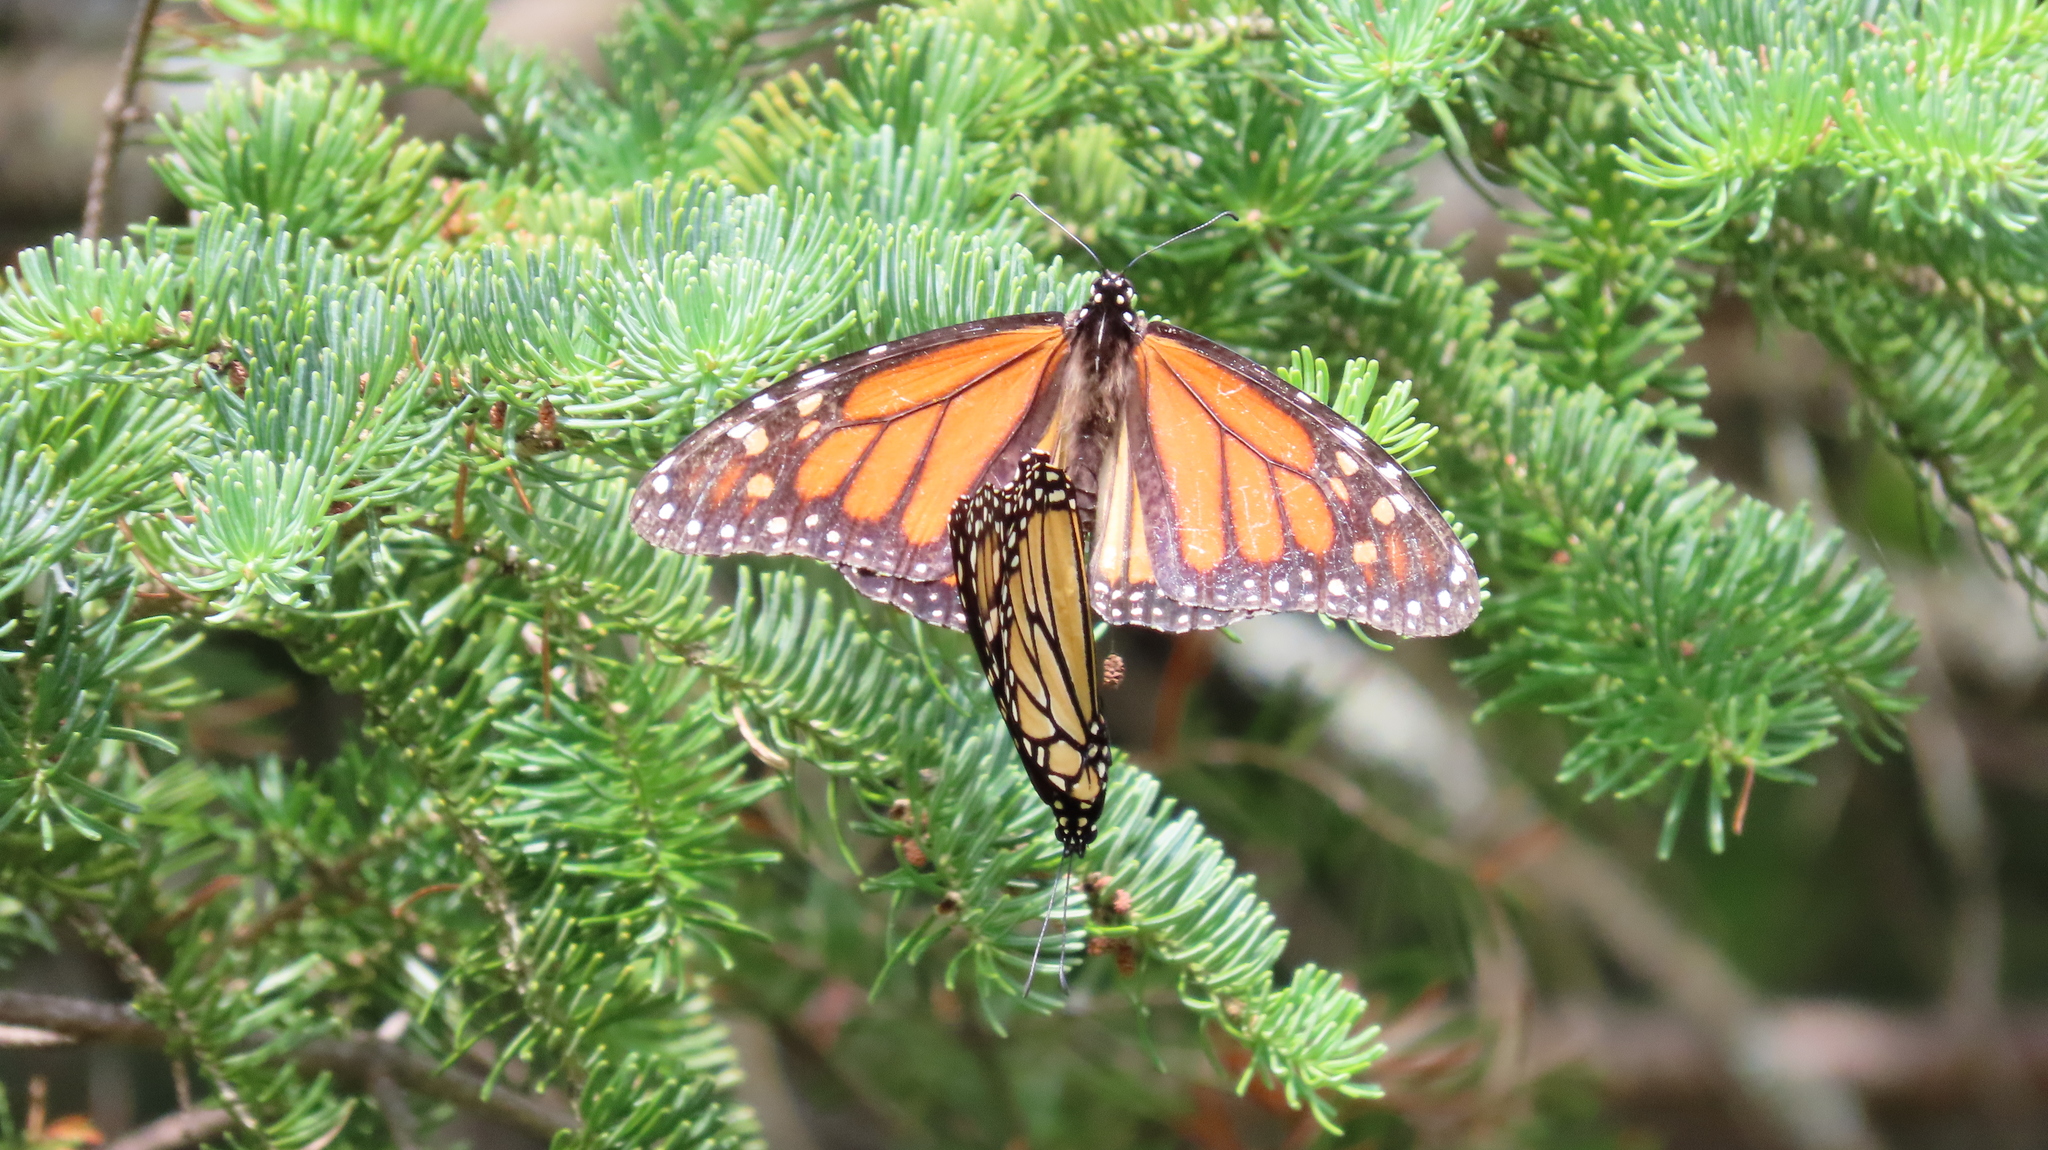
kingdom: Animalia
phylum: Arthropoda
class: Insecta
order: Lepidoptera
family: Nymphalidae
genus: Danaus
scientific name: Danaus plexippus
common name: Monarch
